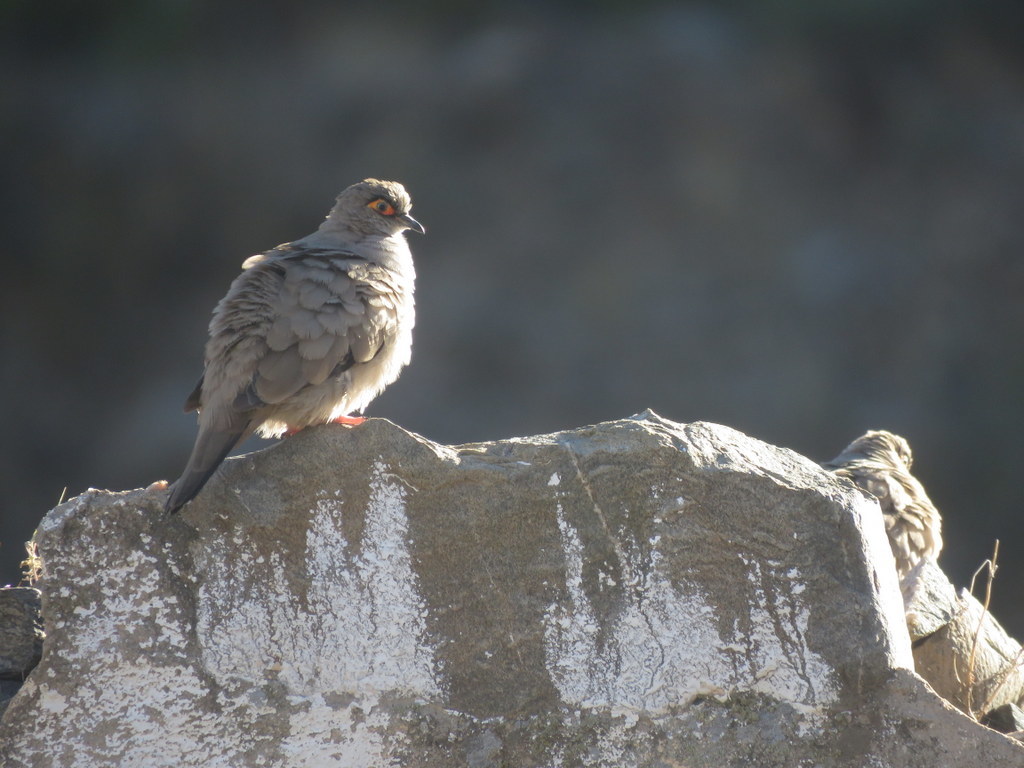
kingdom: Animalia
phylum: Chordata
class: Aves
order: Columbiformes
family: Columbidae
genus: Metriopelia
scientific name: Metriopelia morenoi
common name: Moreno's ground dove
